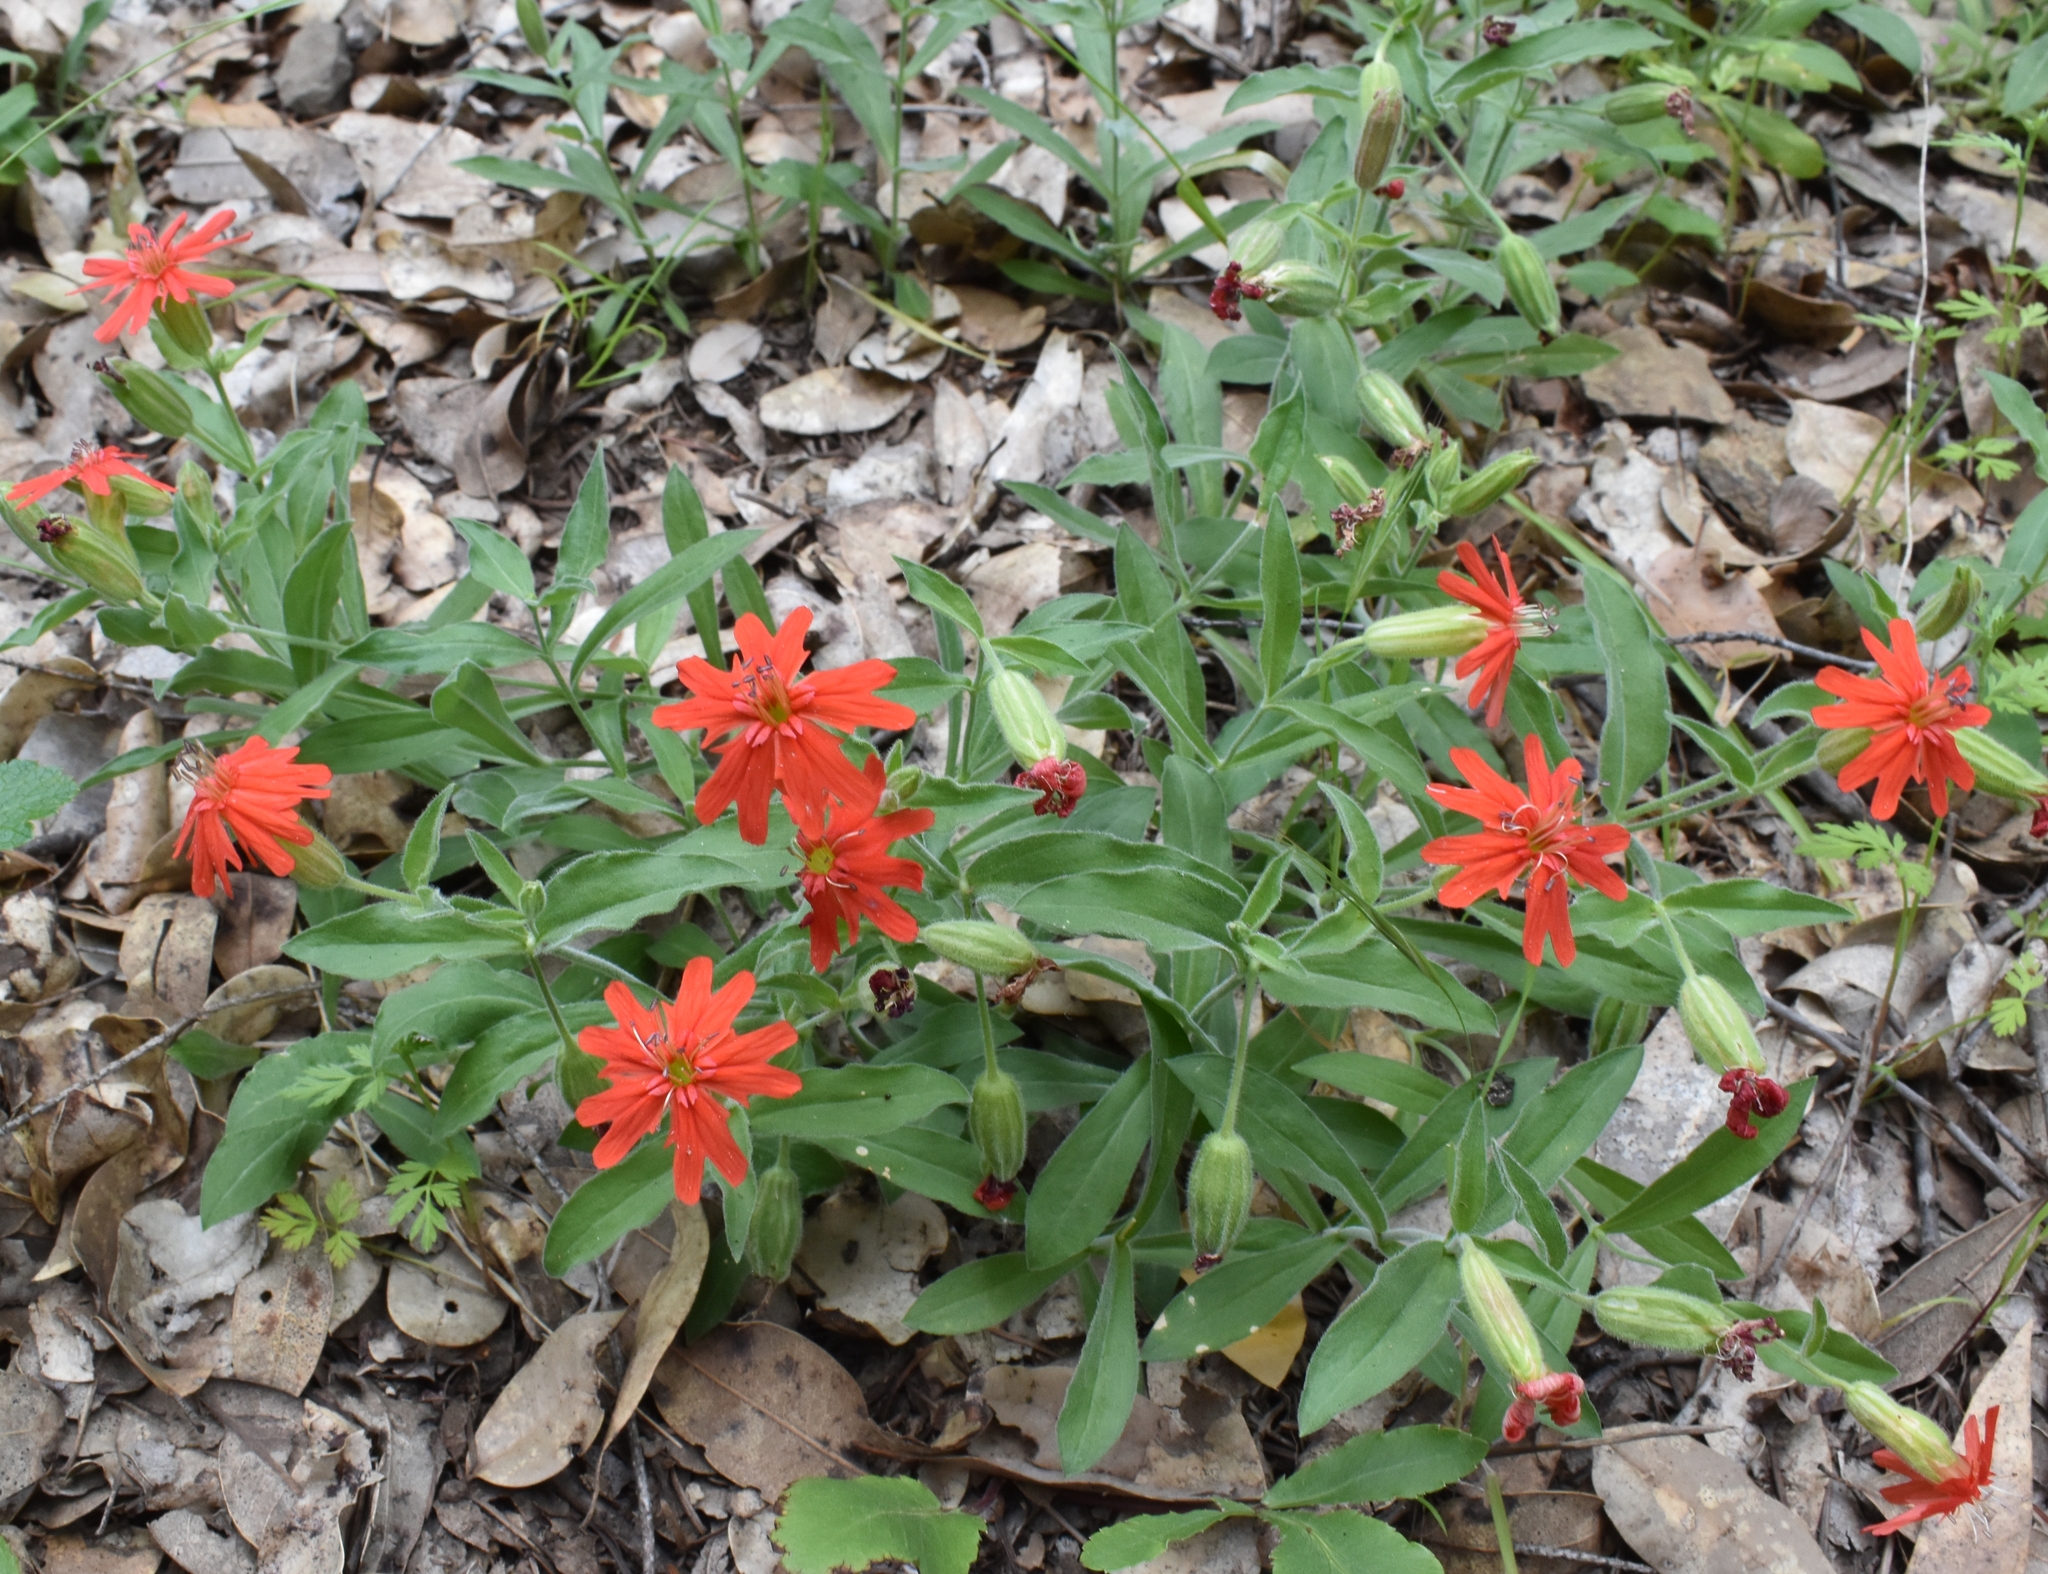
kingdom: Plantae
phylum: Tracheophyta
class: Magnoliopsida
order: Caryophyllales
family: Caryophyllaceae
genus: Silene
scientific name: Silene laciniata
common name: Indian-pink
